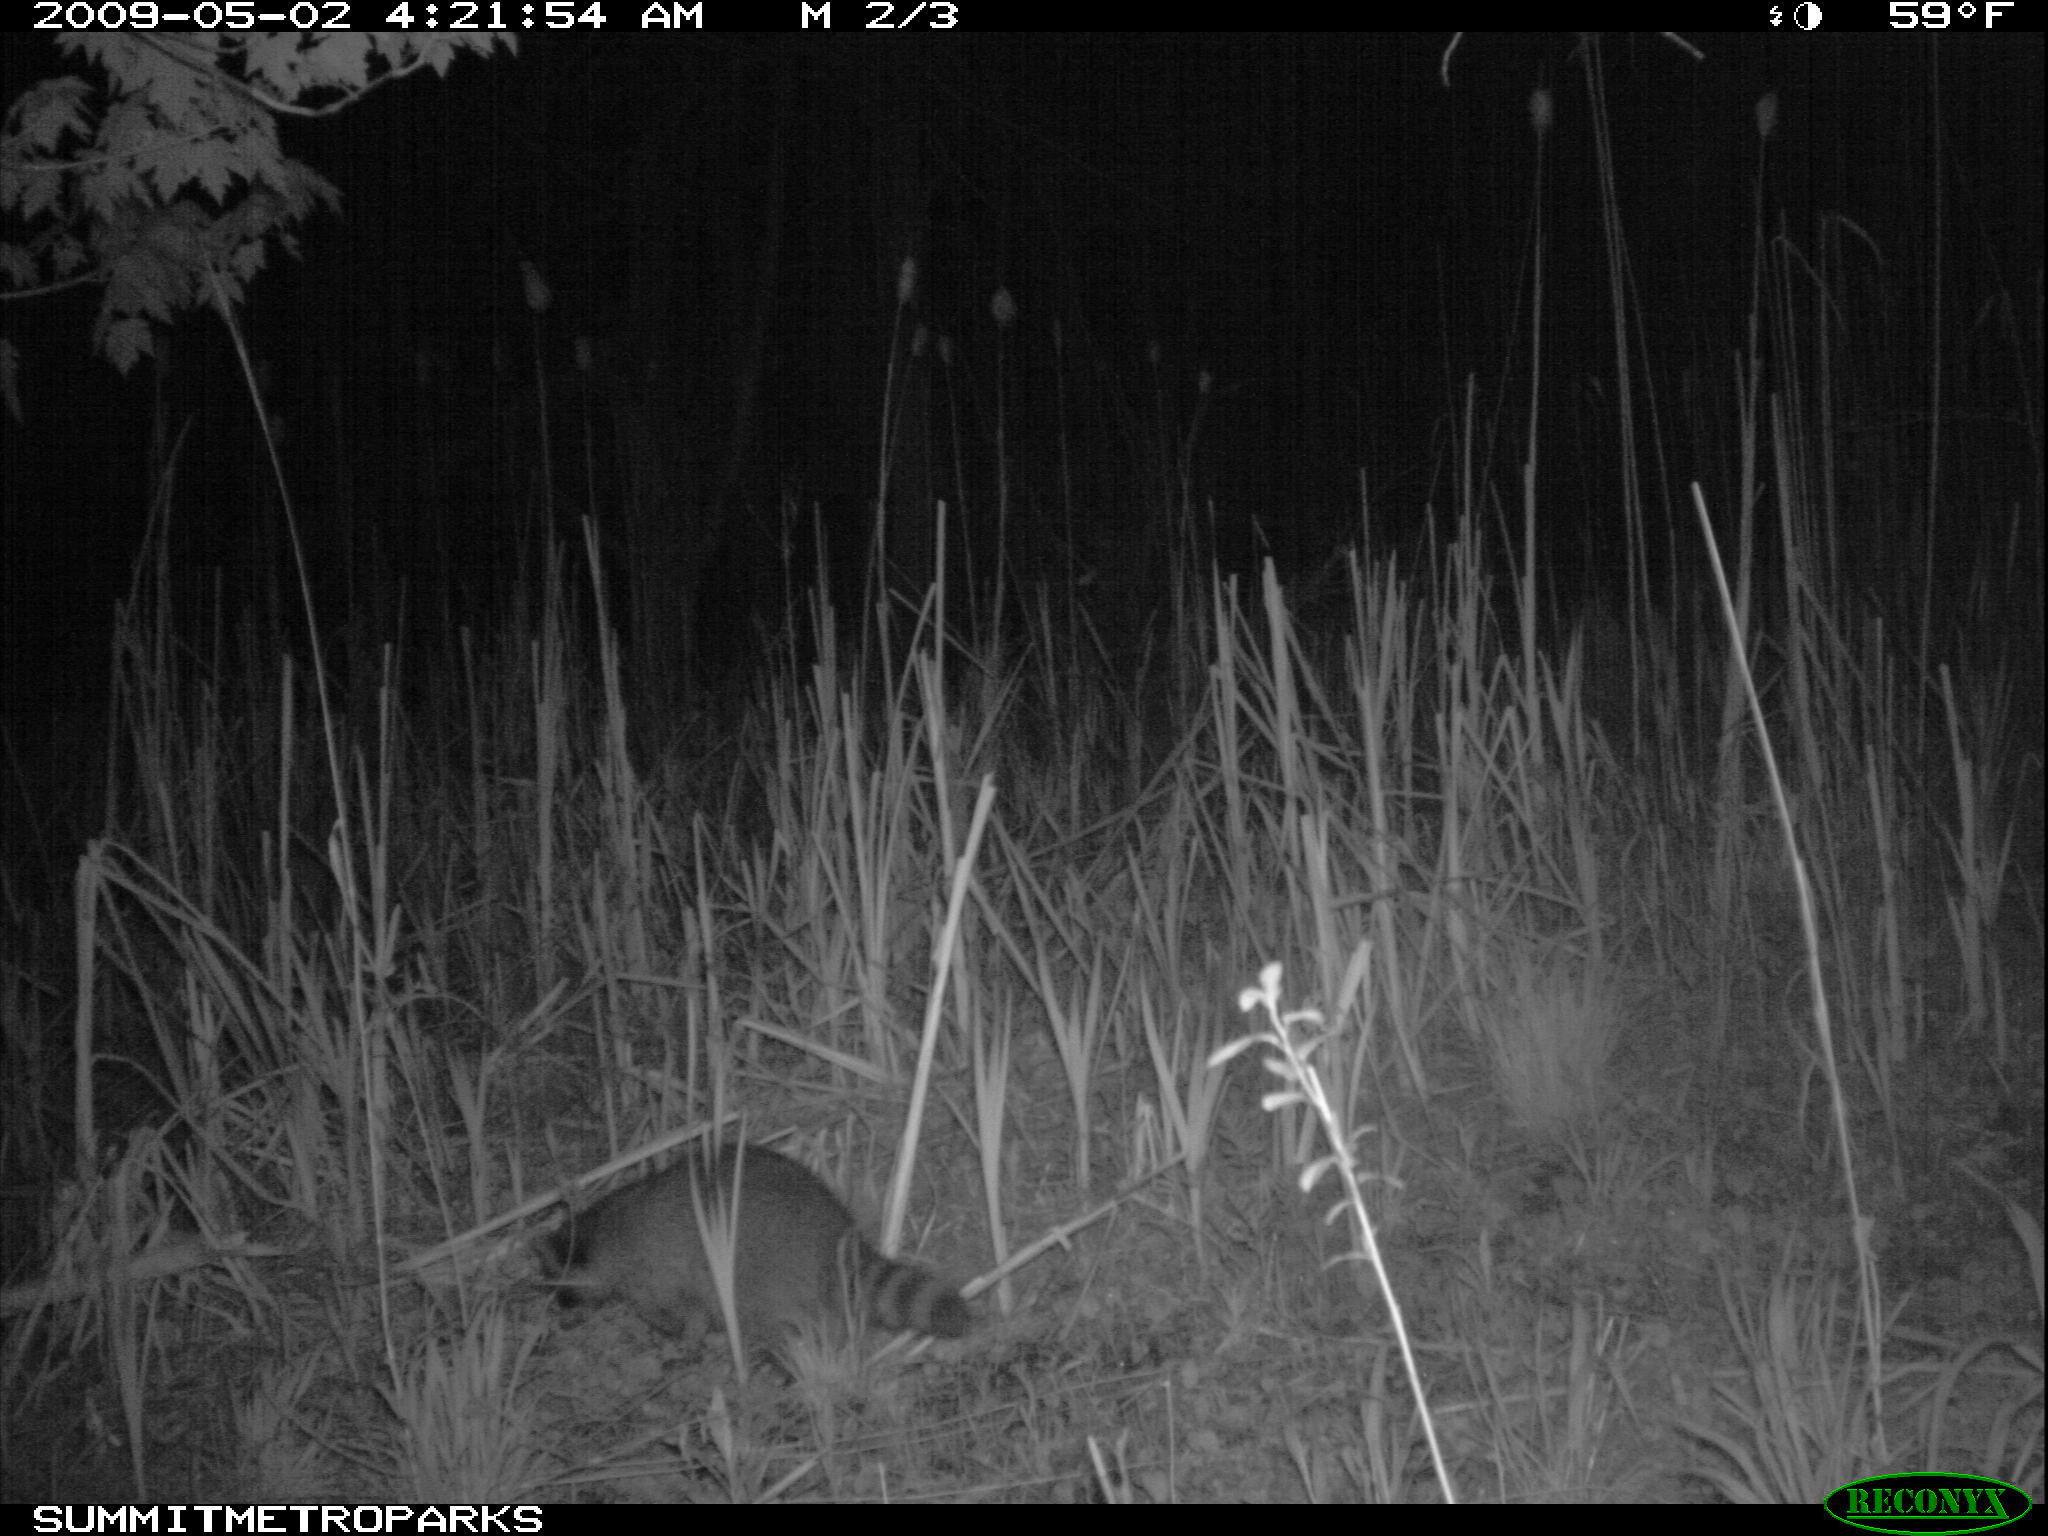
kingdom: Animalia
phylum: Chordata
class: Mammalia
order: Carnivora
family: Procyonidae
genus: Procyon
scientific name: Procyon lotor
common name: Raccoon
